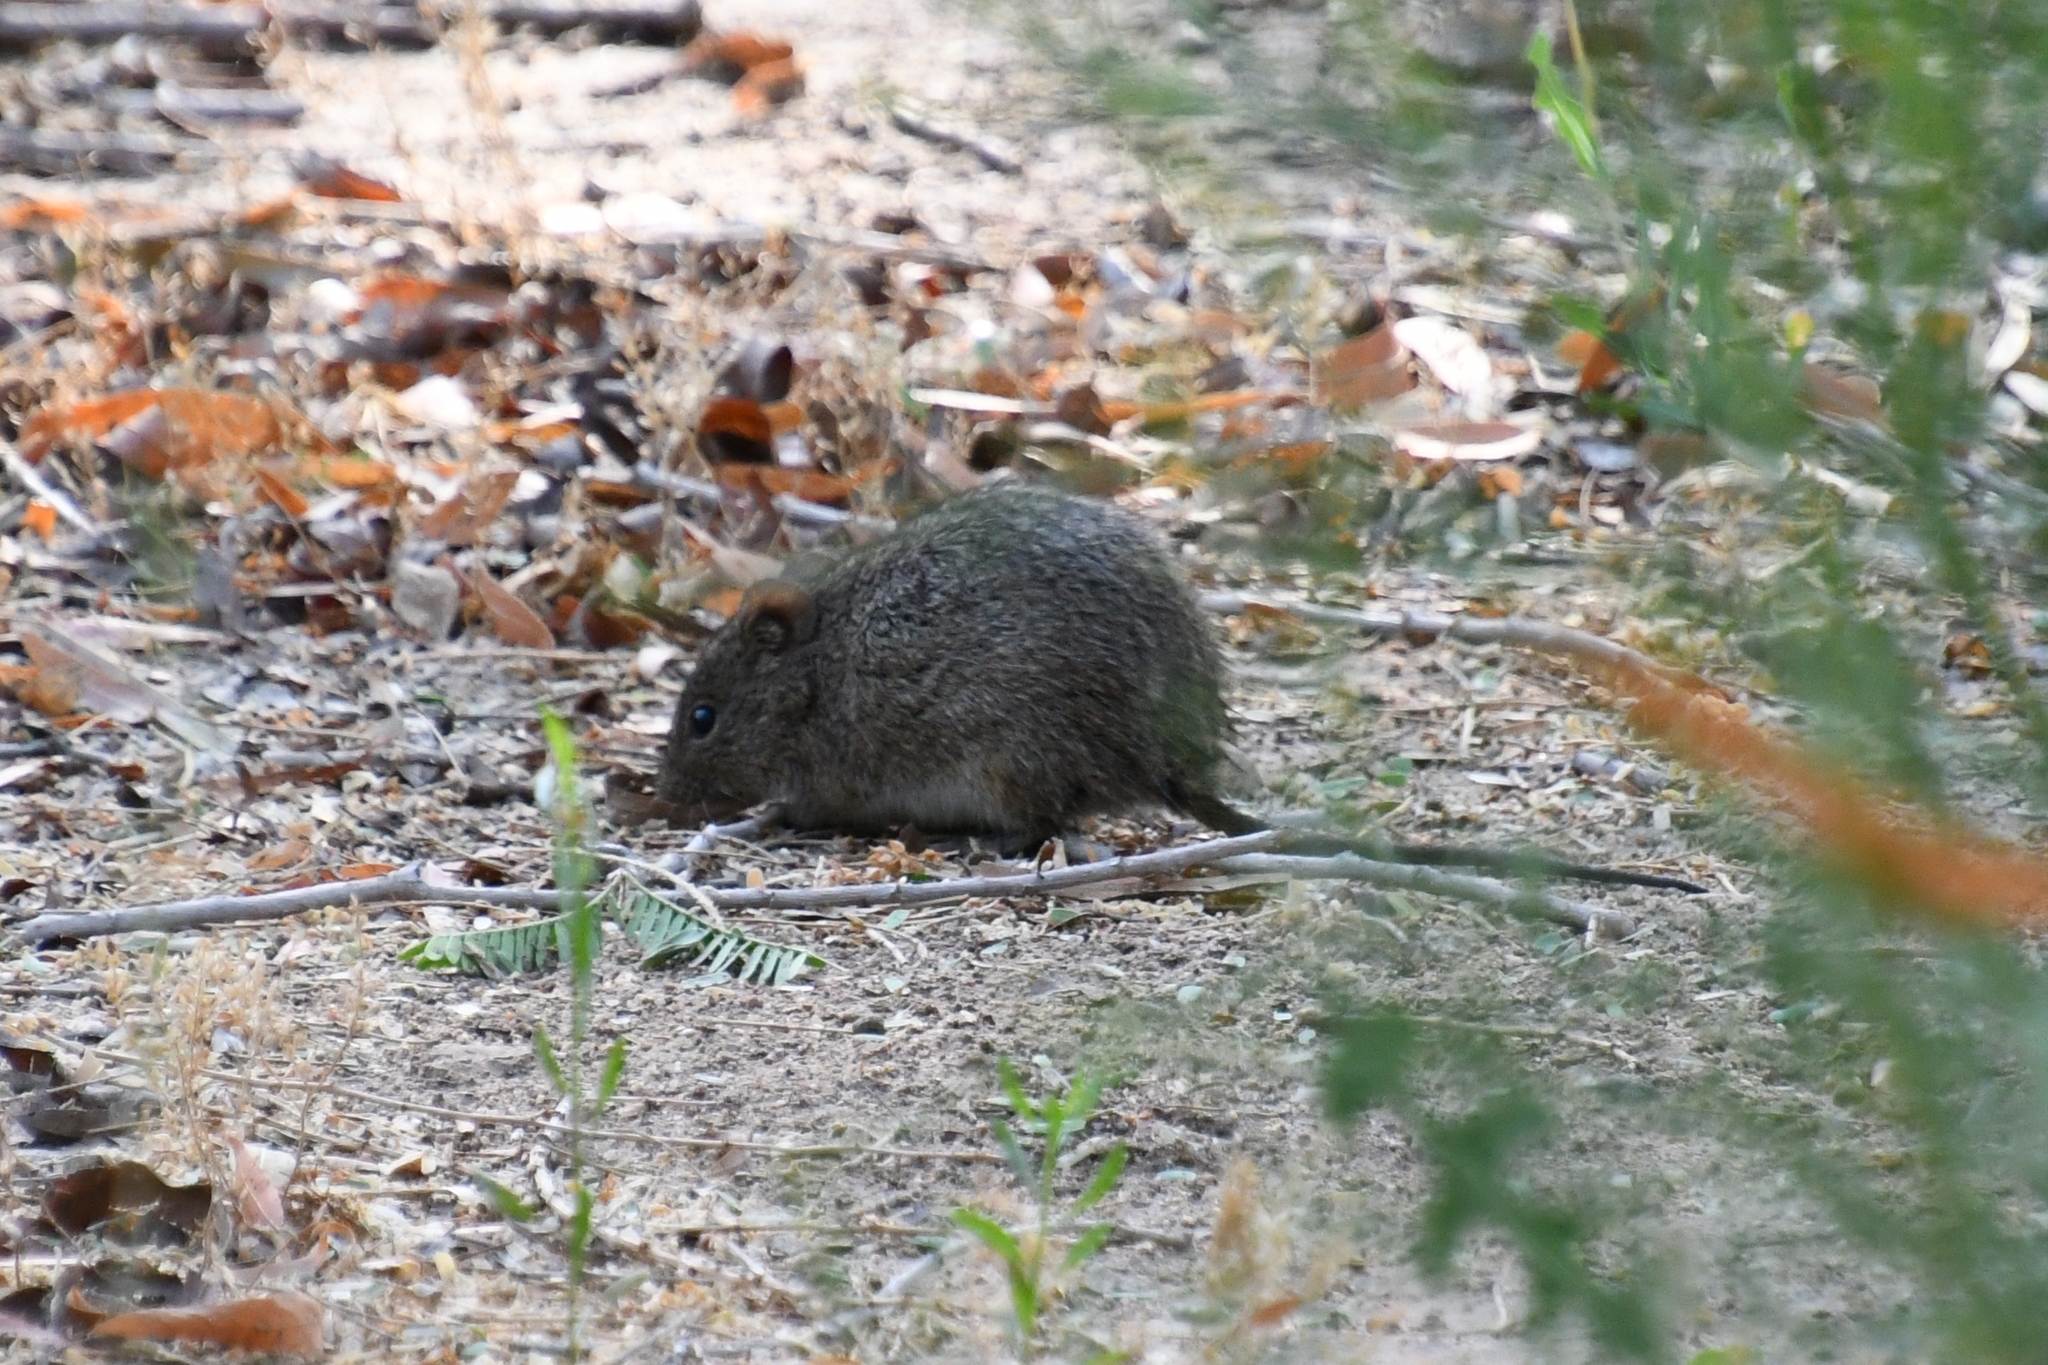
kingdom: Animalia
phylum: Chordata
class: Mammalia
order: Rodentia
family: Cricetidae
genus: Sigmodon
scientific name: Sigmodon arizonae
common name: Arizona cotton rat
